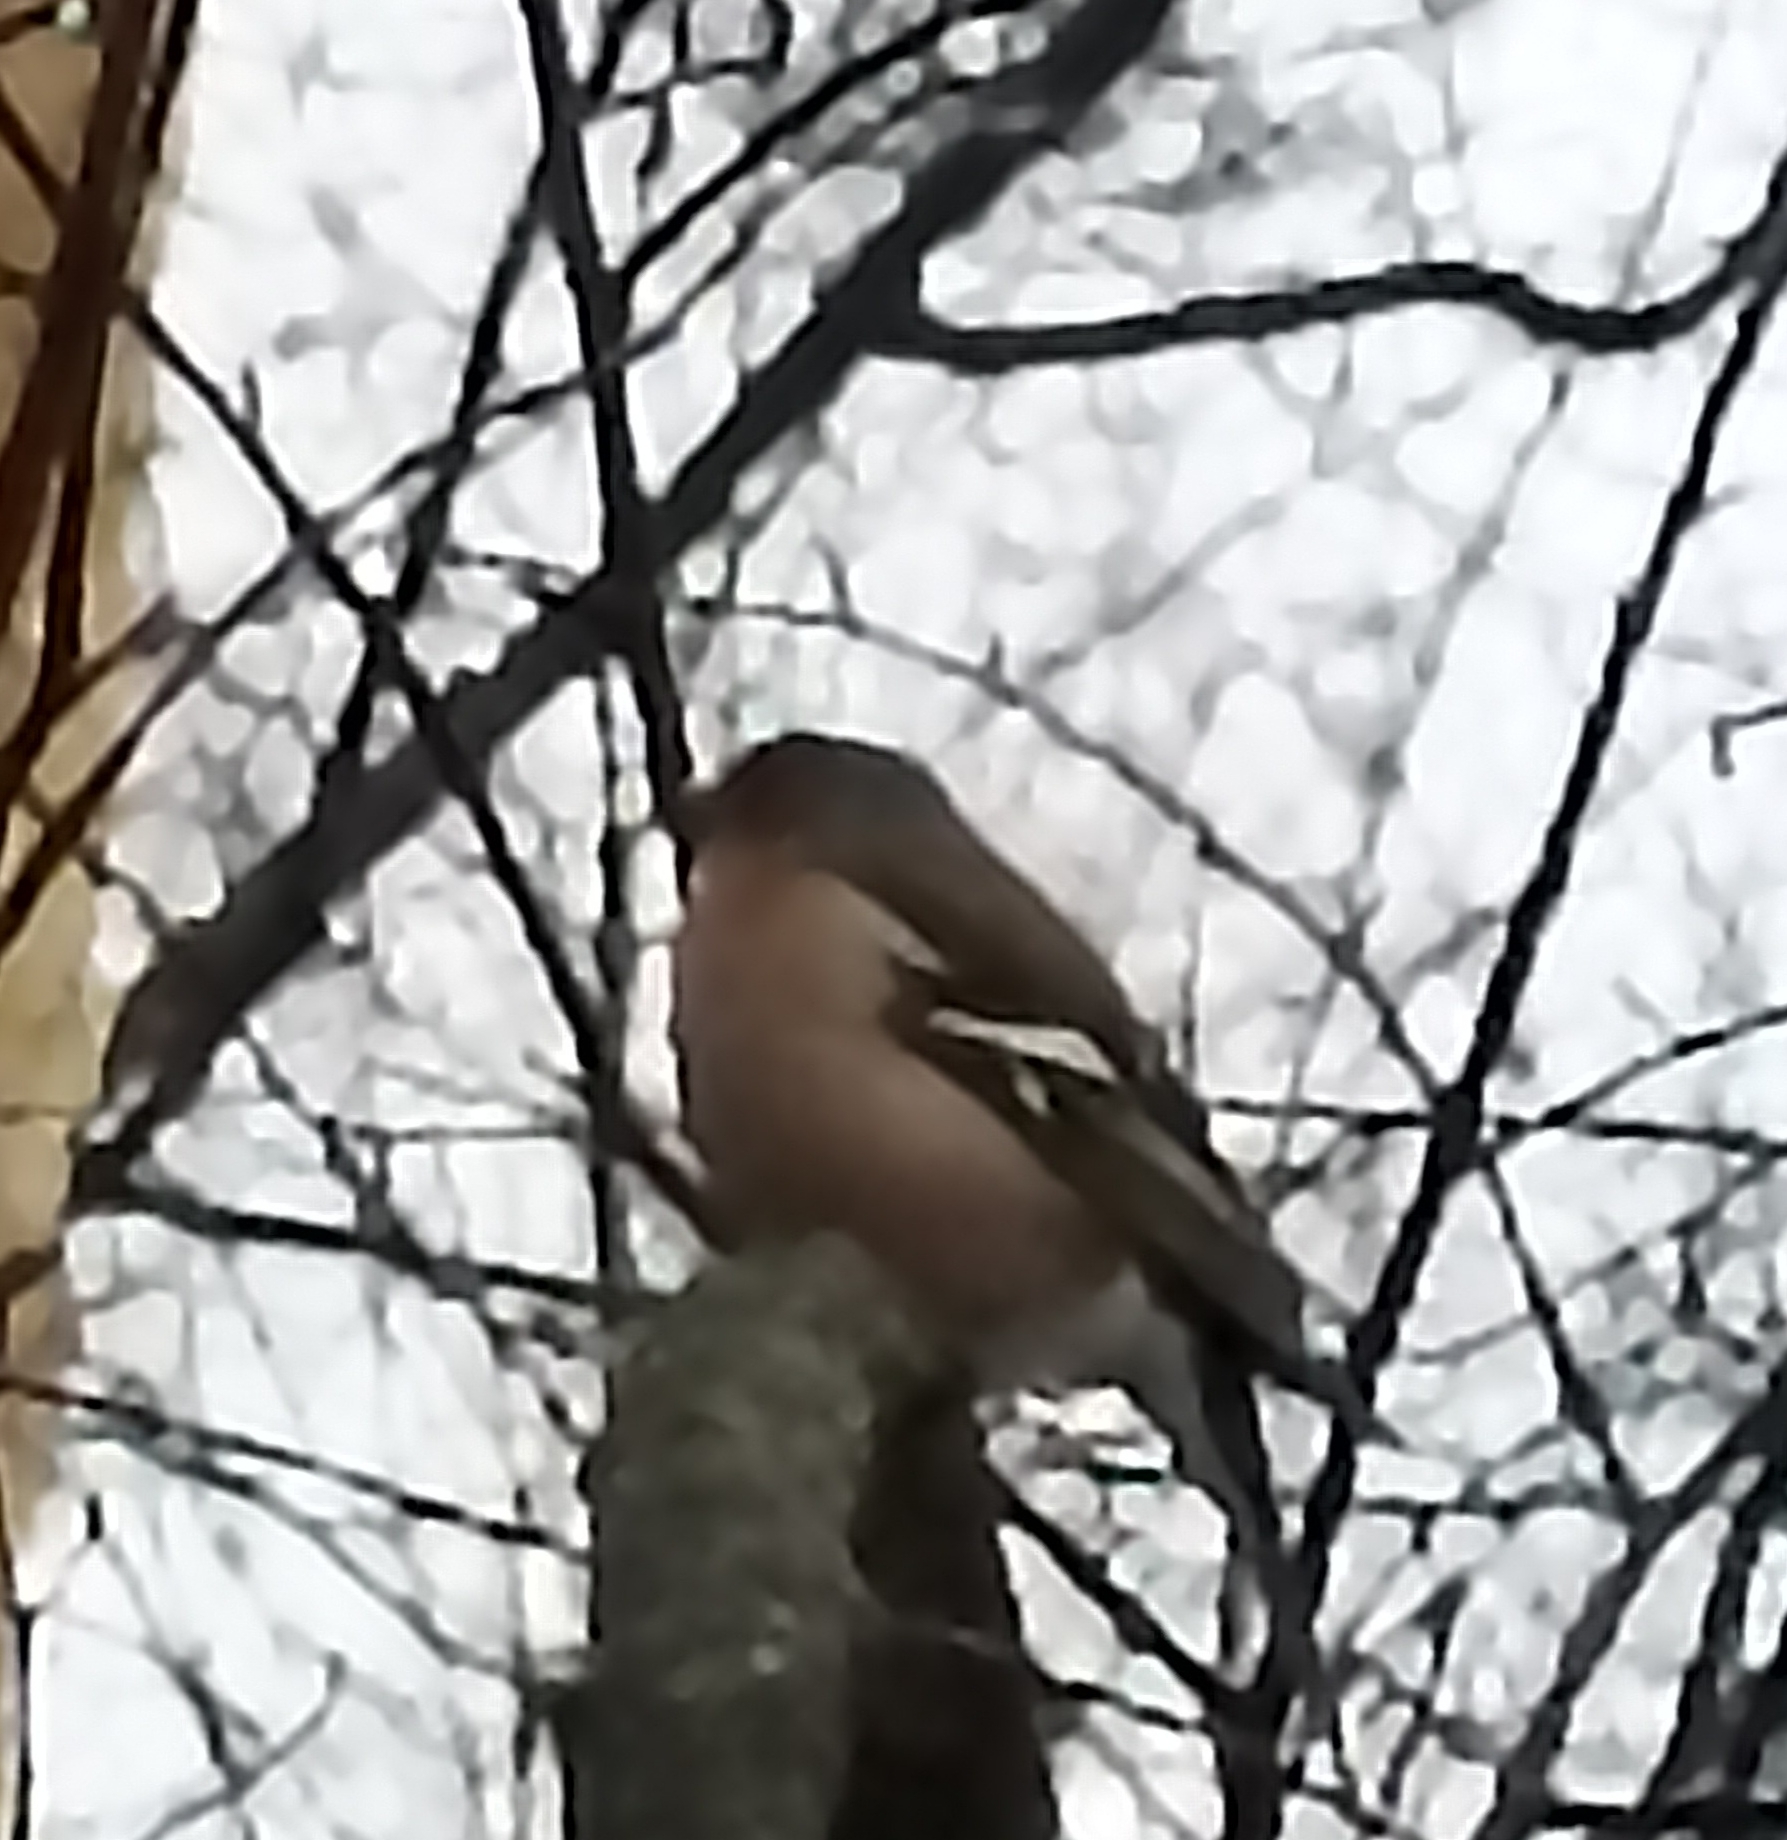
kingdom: Animalia
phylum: Chordata
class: Aves
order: Passeriformes
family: Fringillidae
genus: Fringilla
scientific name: Fringilla coelebs
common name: Common chaffinch
